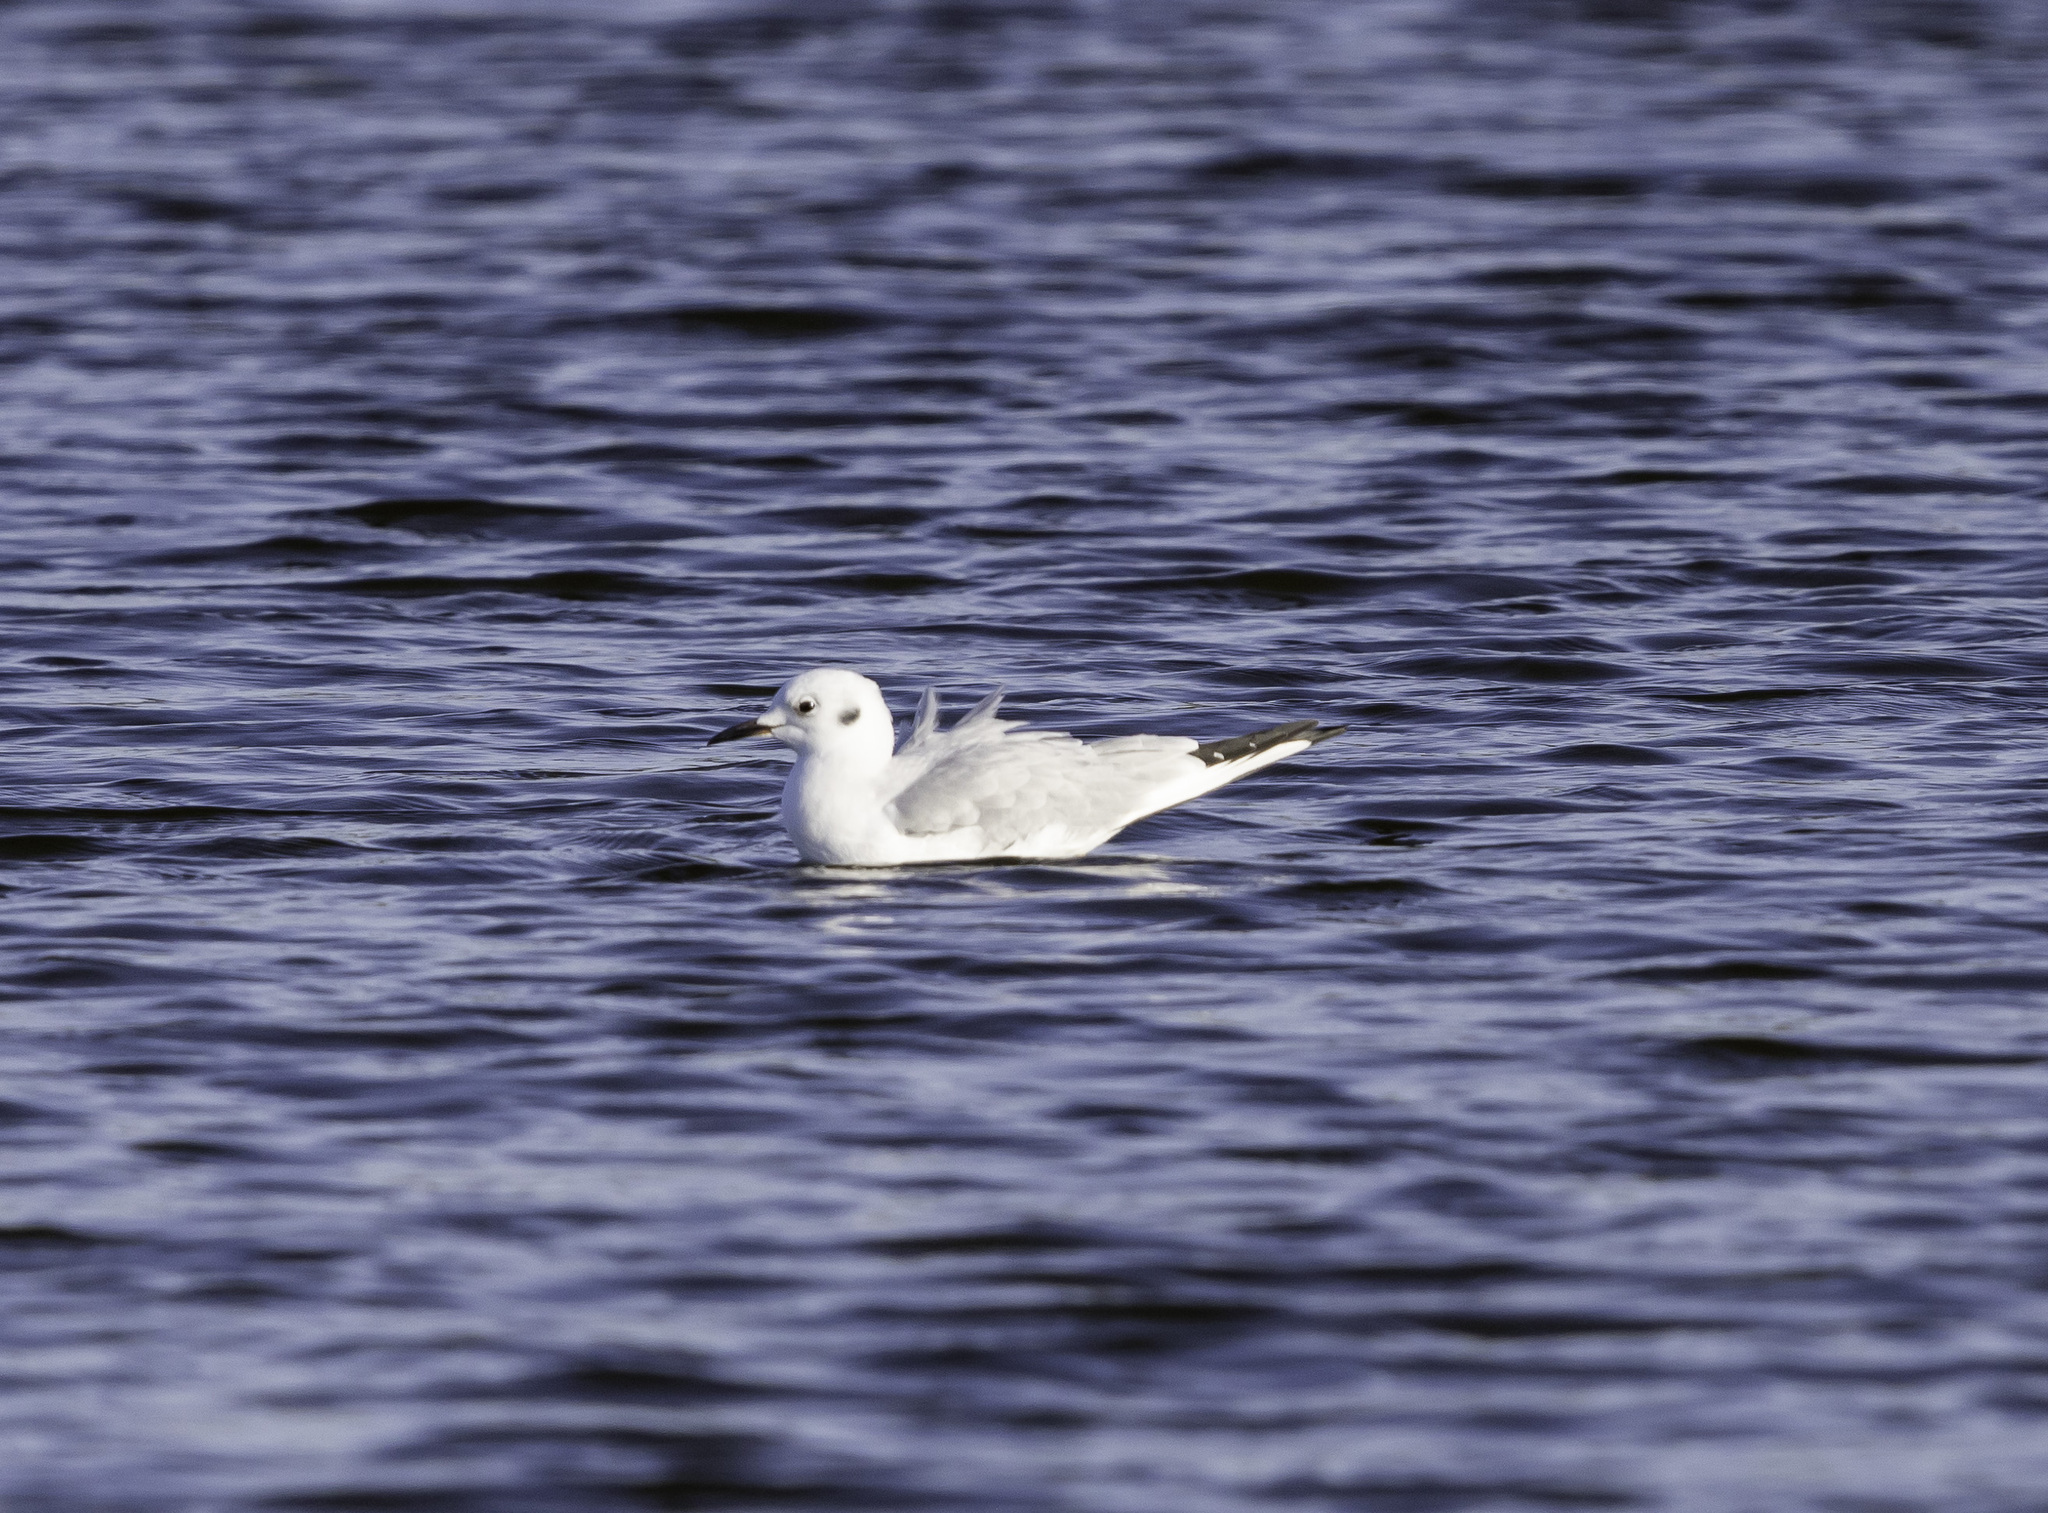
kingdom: Animalia
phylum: Chordata
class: Aves
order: Charadriiformes
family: Laridae
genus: Chroicocephalus
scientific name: Chroicocephalus philadelphia
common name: Bonaparte's gull
